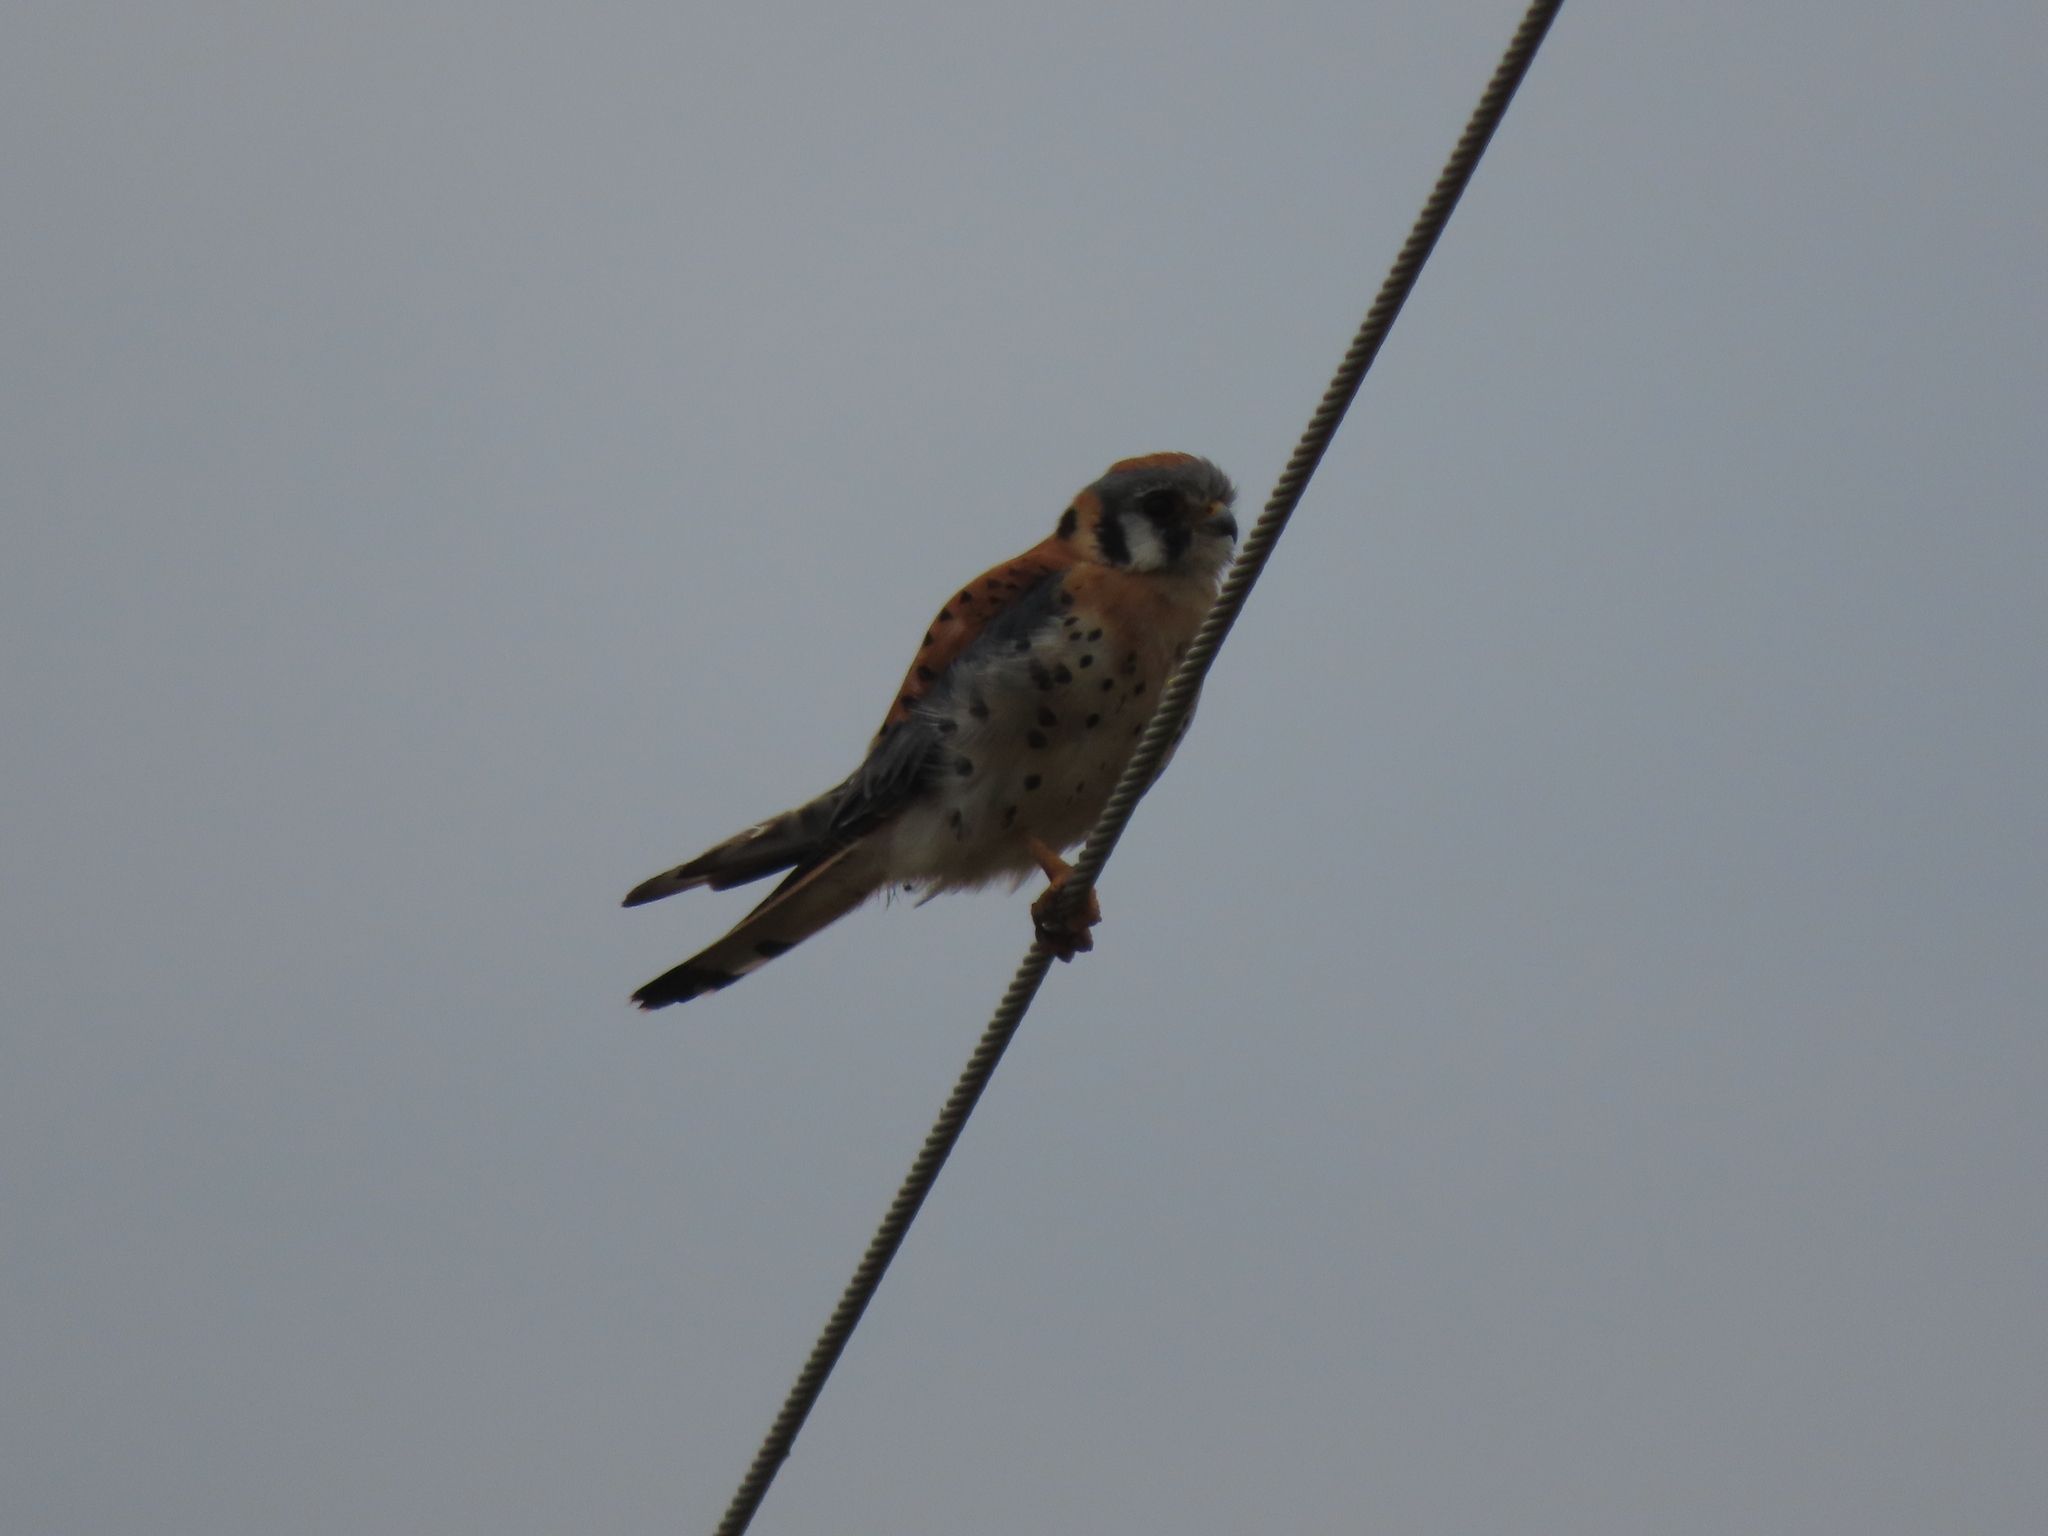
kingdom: Animalia
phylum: Chordata
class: Aves
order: Falconiformes
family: Falconidae
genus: Falco
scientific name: Falco sparverius
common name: American kestrel
